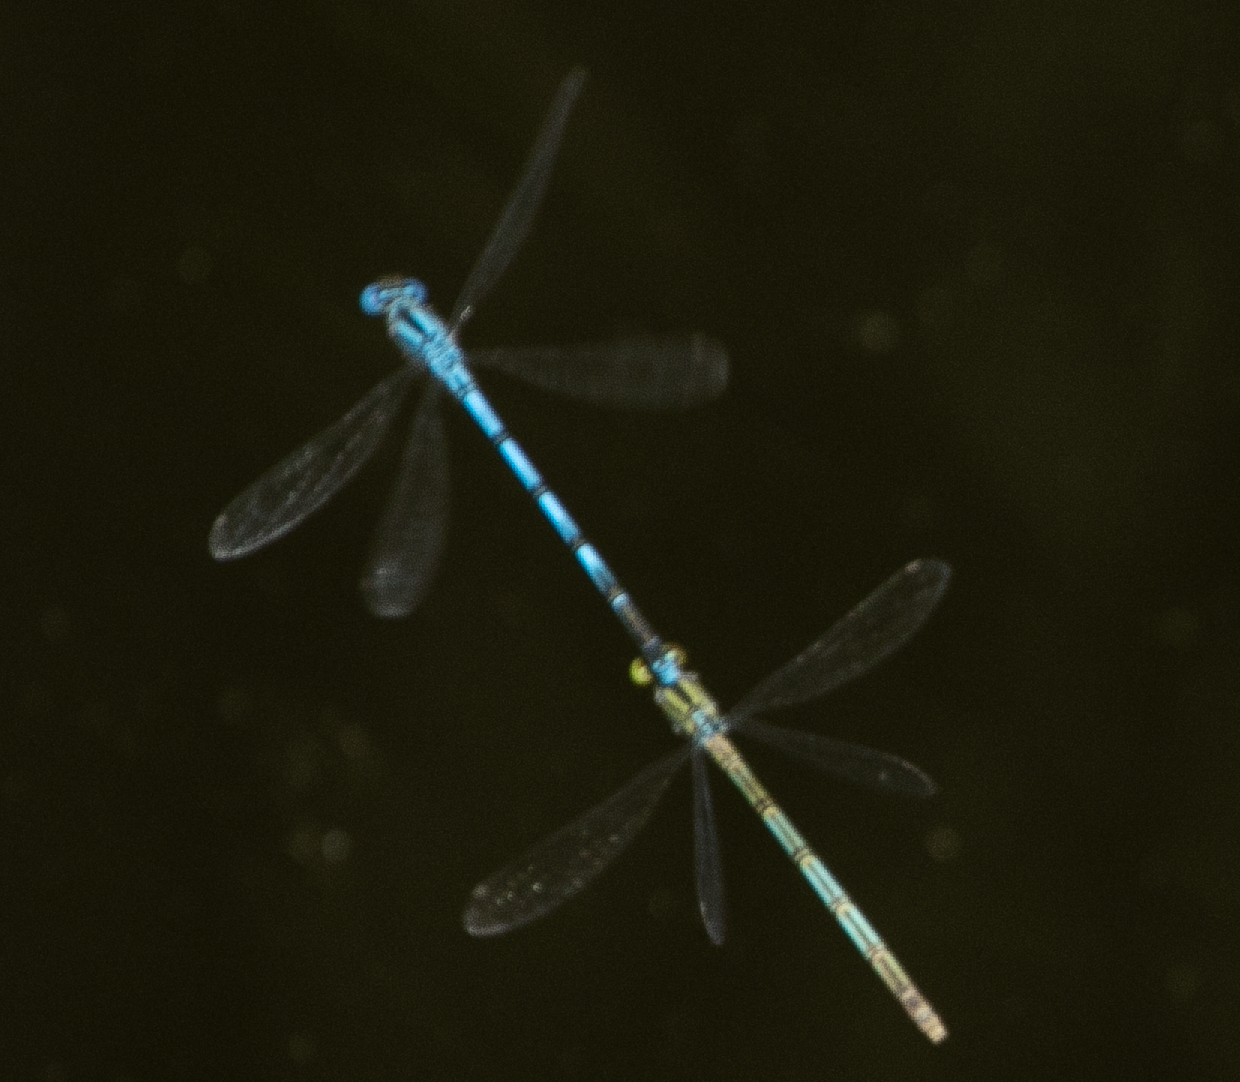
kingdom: Animalia
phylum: Arthropoda
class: Insecta
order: Odonata
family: Coenagrionidae
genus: Erythromma
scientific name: Erythromma lindenii
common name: Blue-eye
